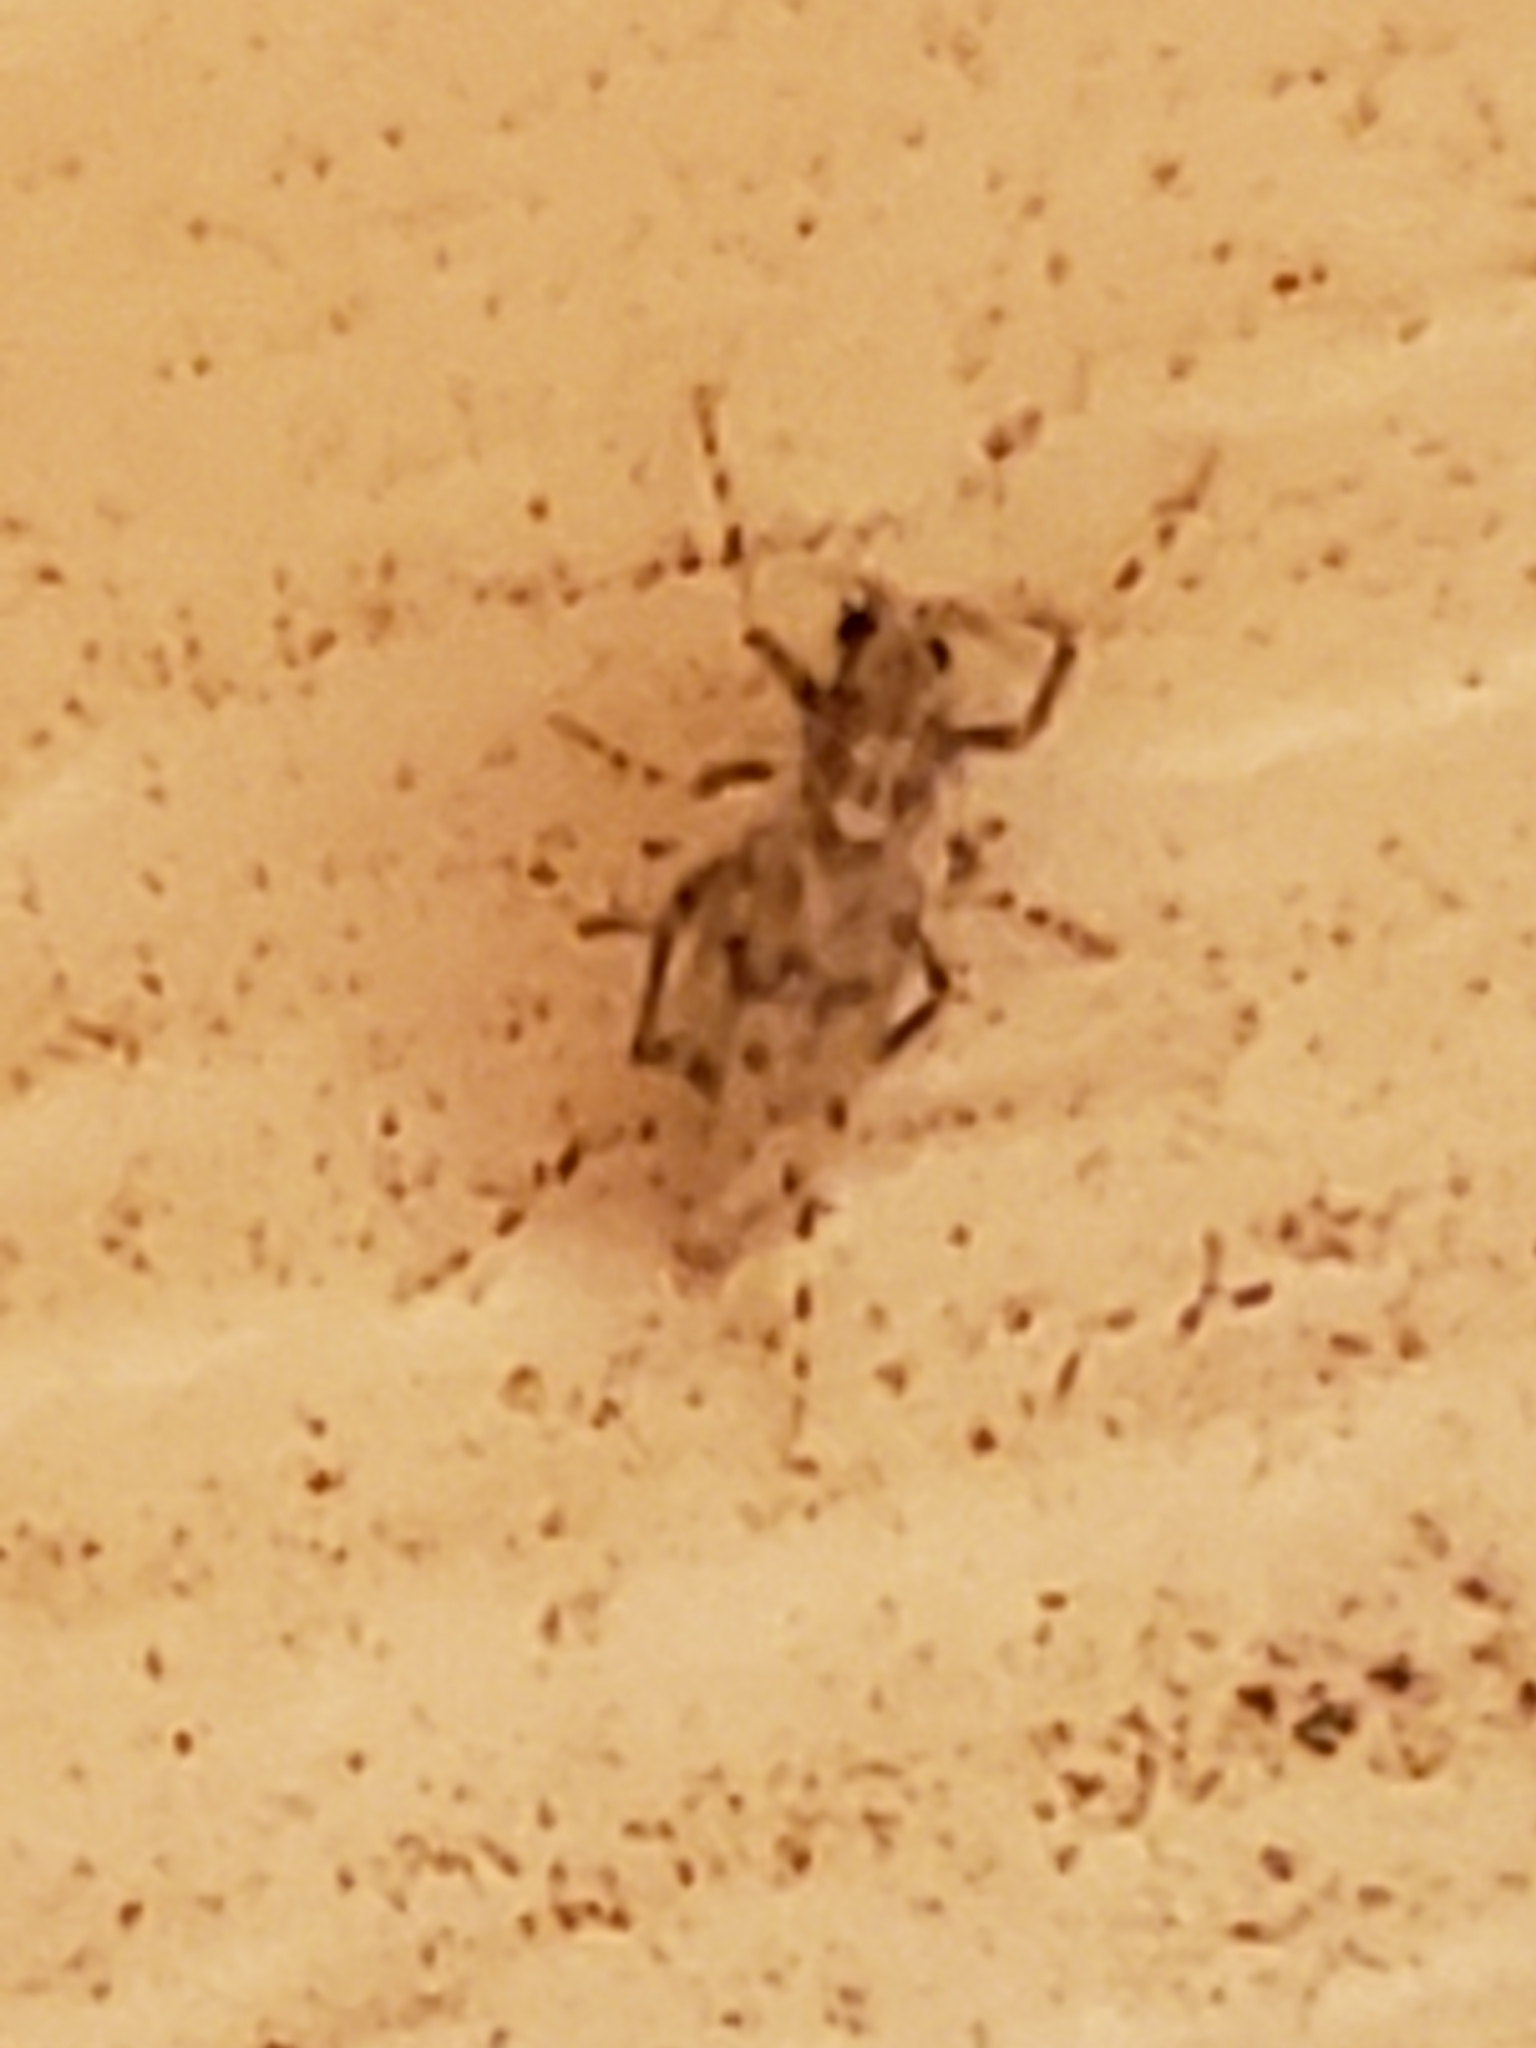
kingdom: Animalia
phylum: Arthropoda
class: Insecta
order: Diptera
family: Chaoboridae
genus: Chaoborus
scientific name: Chaoborus punctipennis
